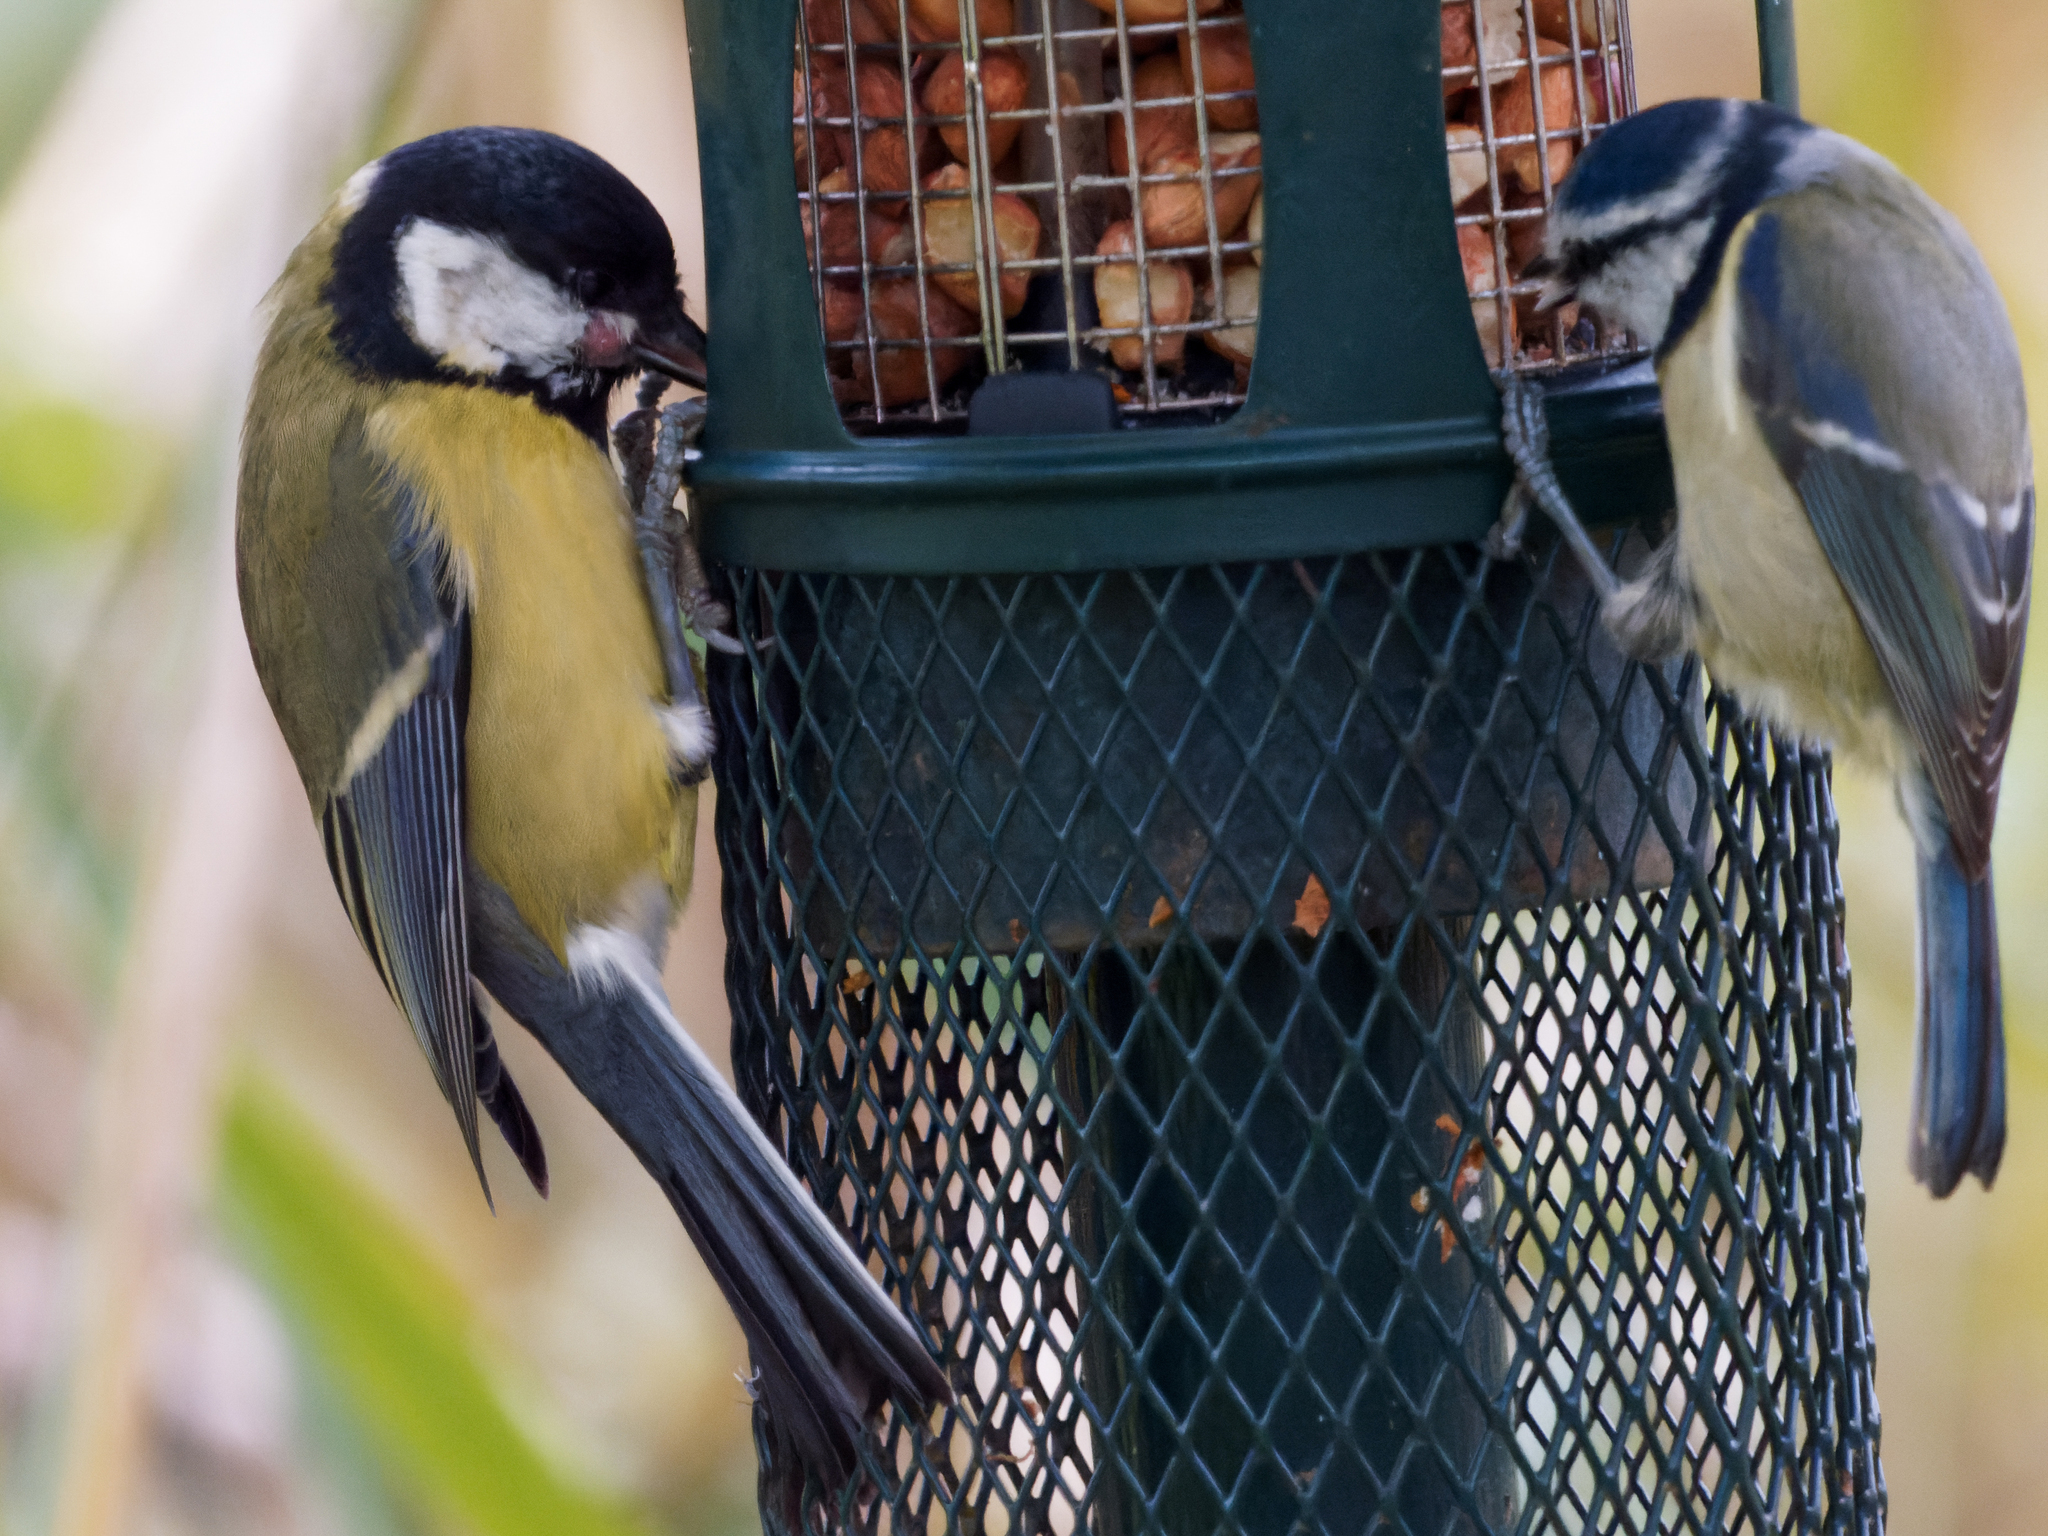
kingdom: Animalia
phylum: Chordata
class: Aves
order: Passeriformes
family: Paridae
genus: Parus
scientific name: Parus major
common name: Great tit
